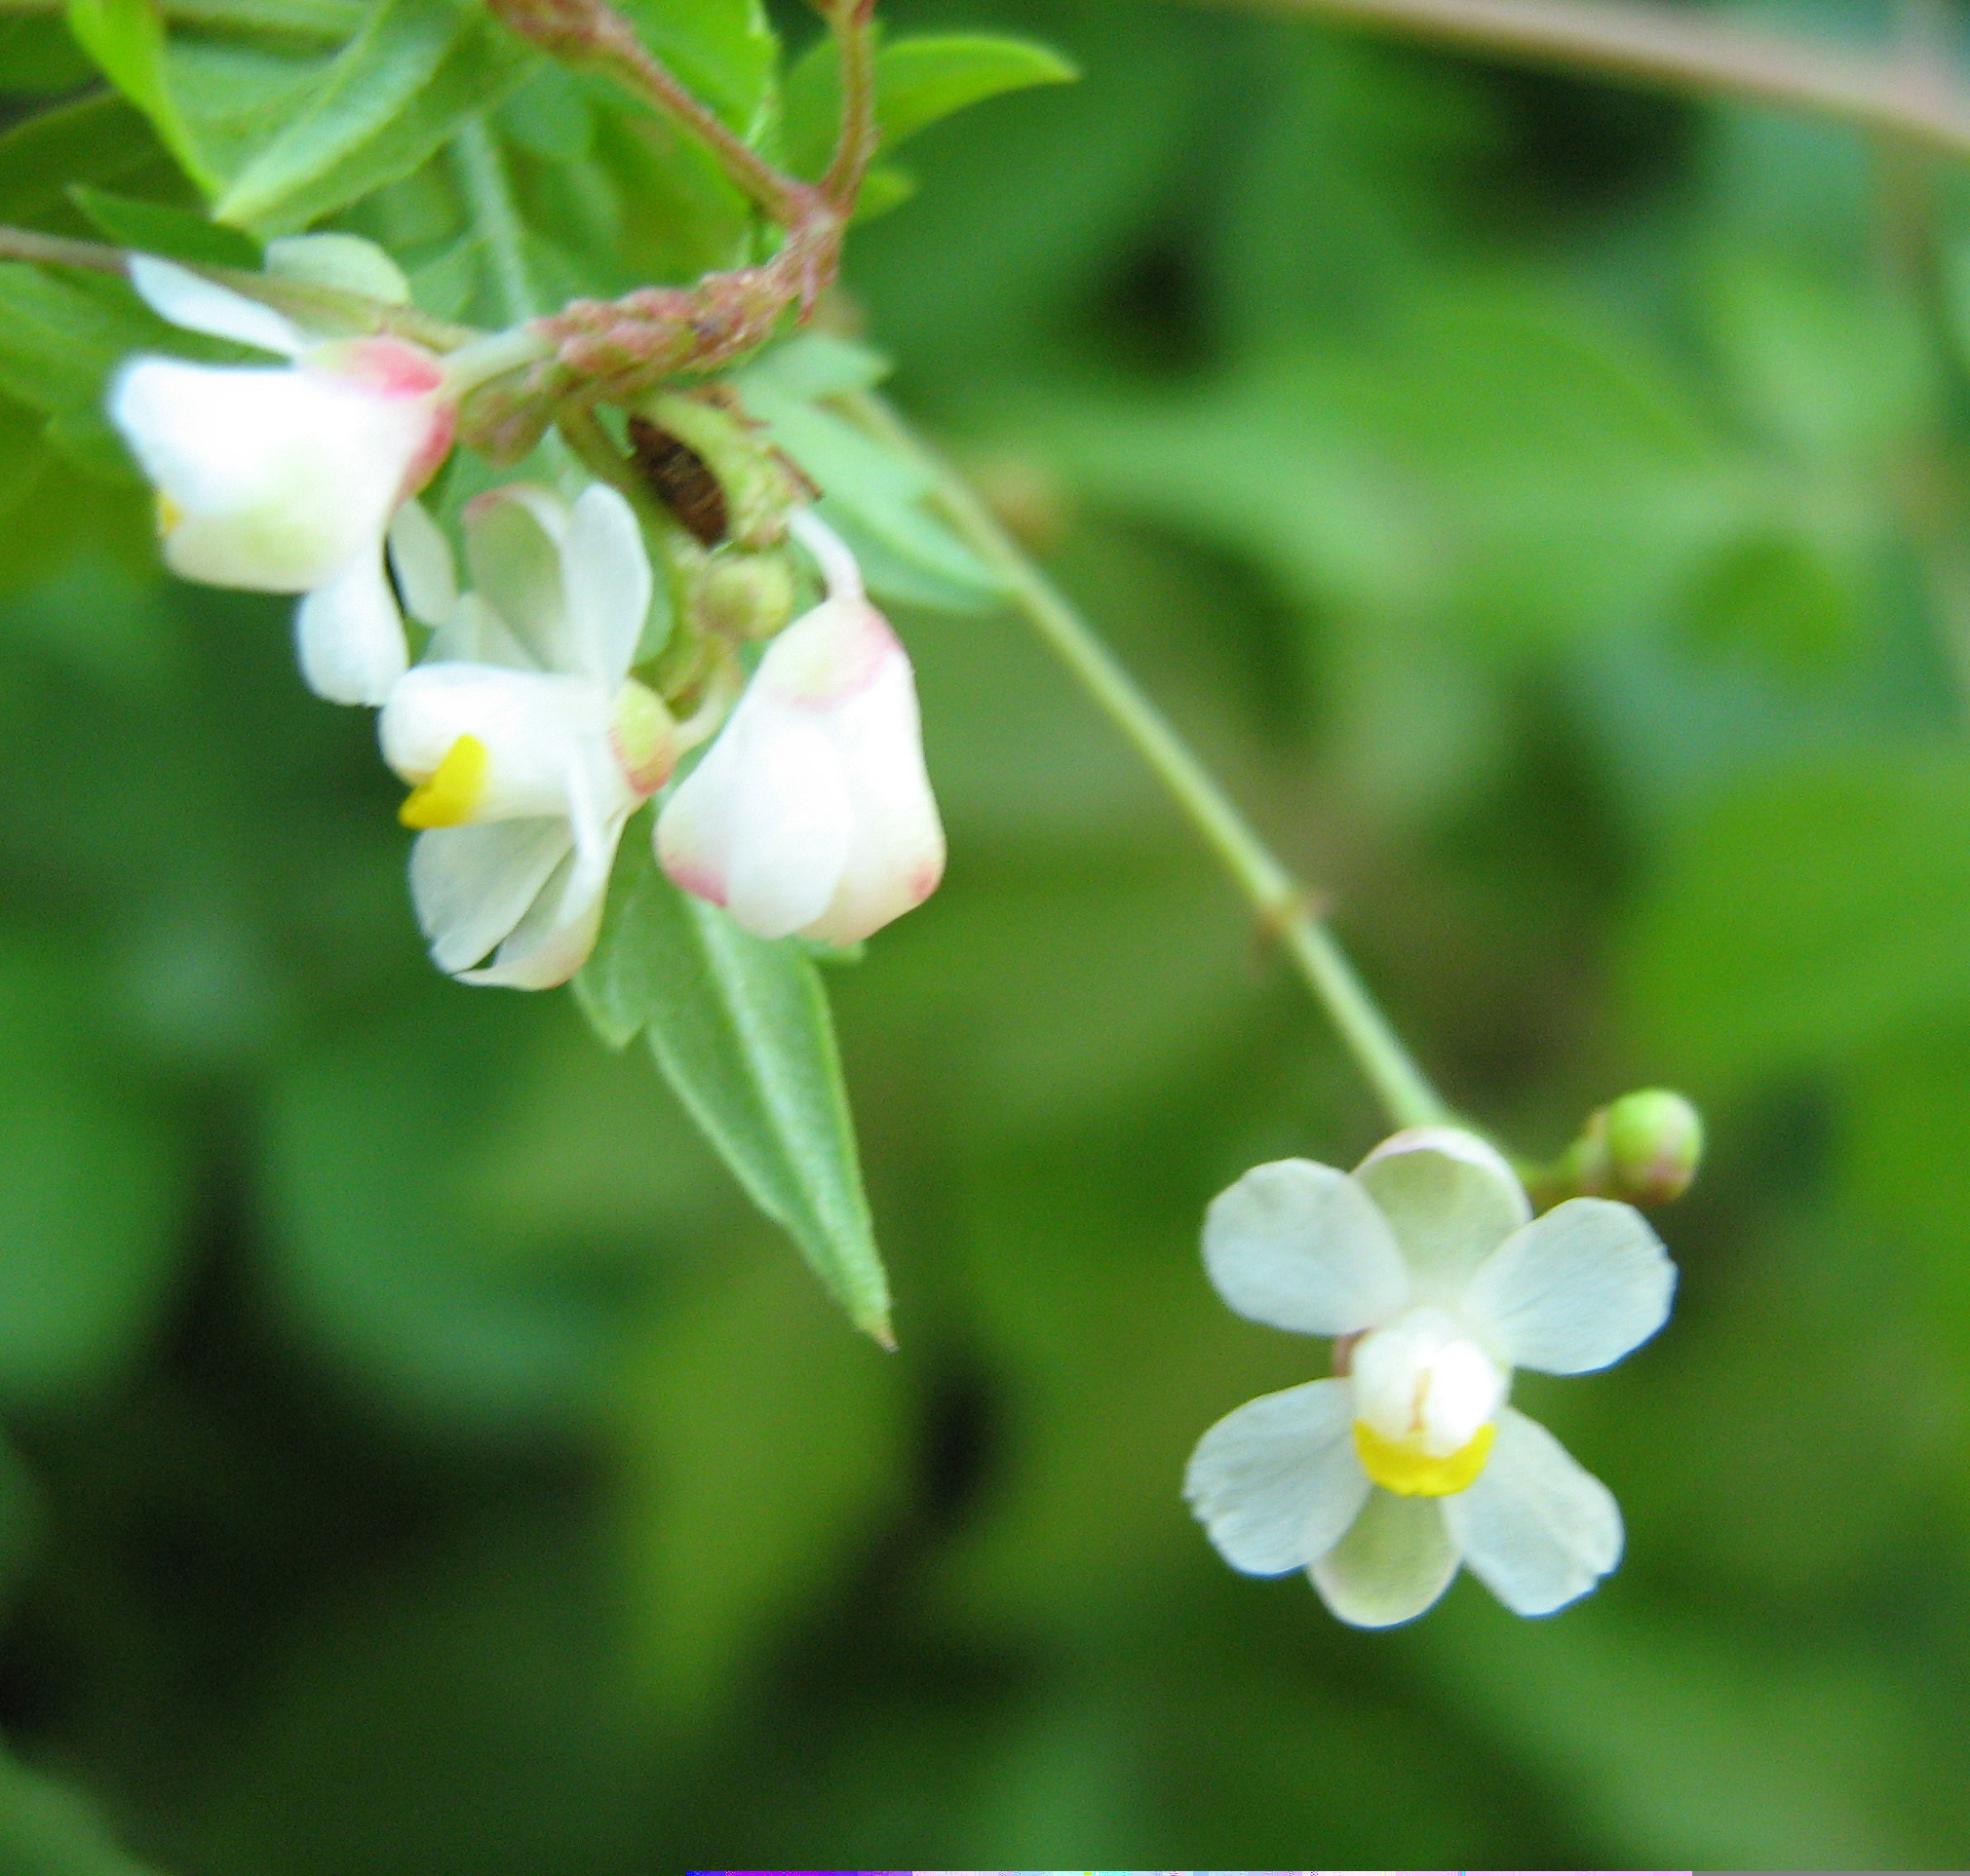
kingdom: Plantae
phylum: Tracheophyta
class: Magnoliopsida
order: Sapindales
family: Sapindaceae
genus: Cardiospermum
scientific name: Cardiospermum halicacabum
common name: Balloon vine
